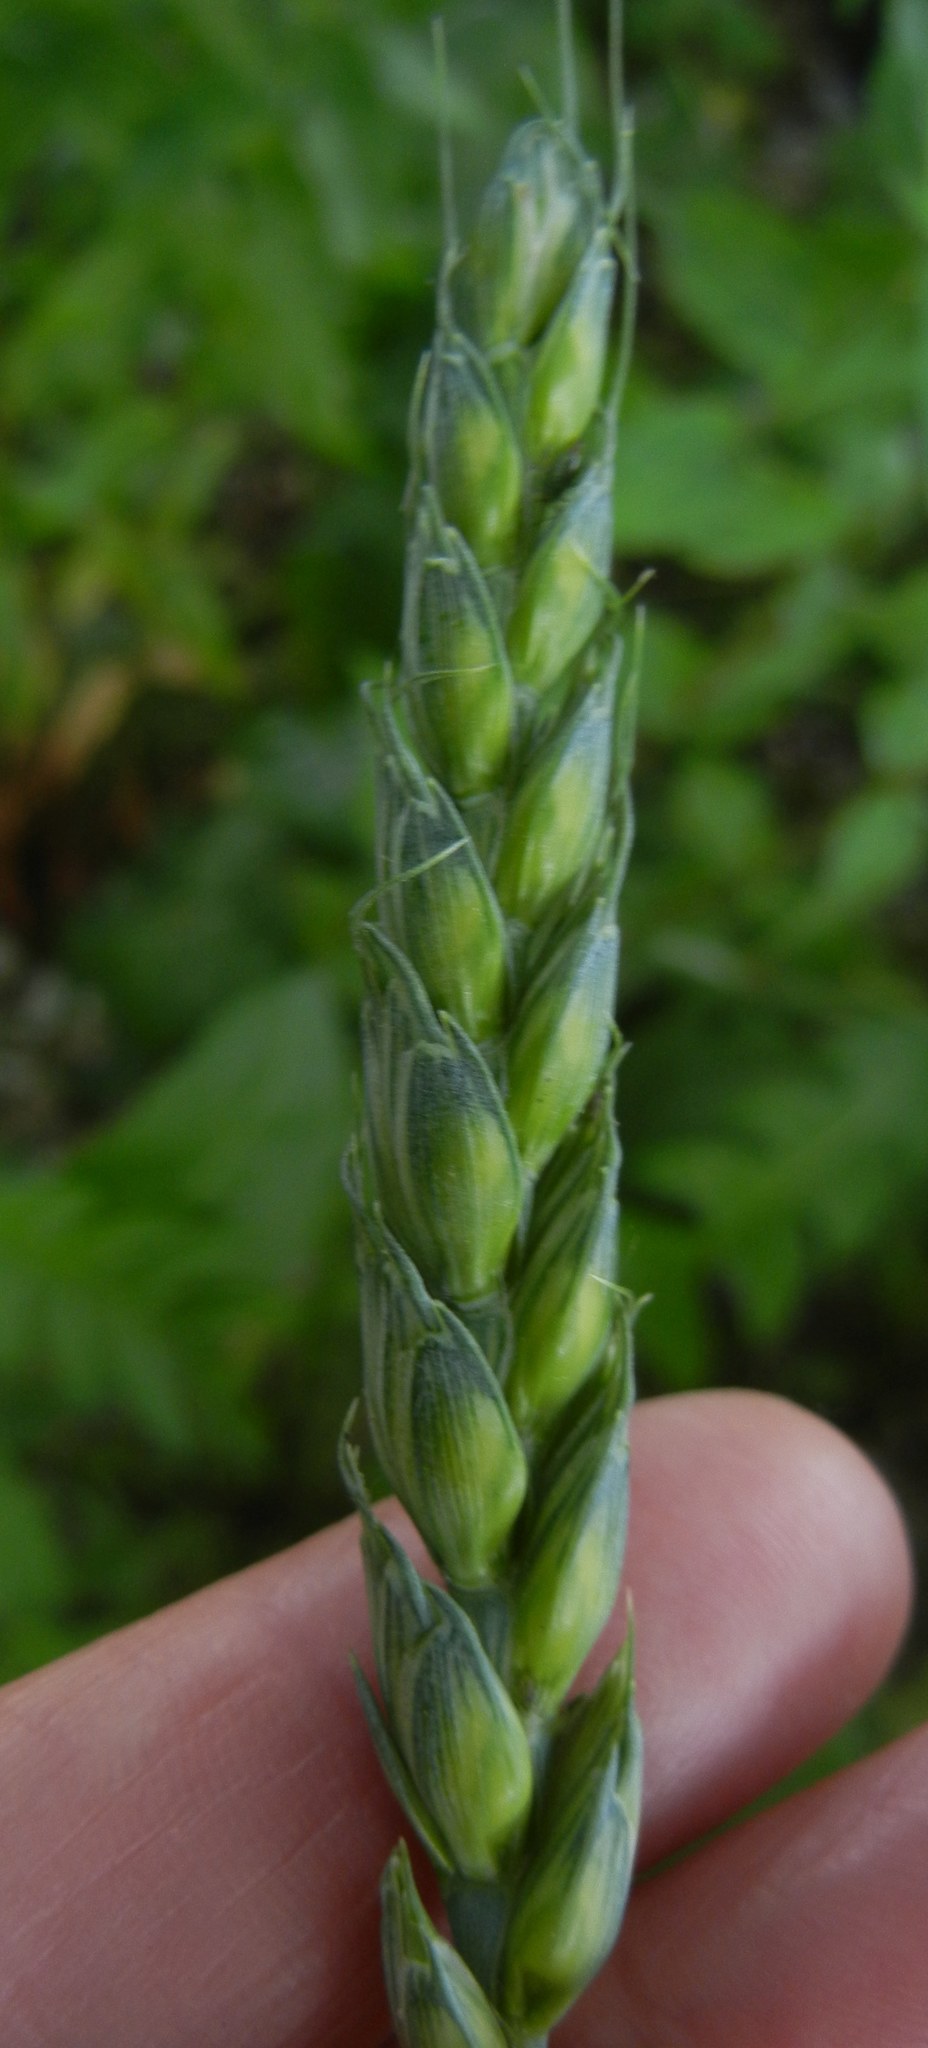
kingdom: Plantae
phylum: Tracheophyta
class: Liliopsida
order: Poales
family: Poaceae
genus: Triticum
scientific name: Triticum aestivum
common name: Common wheat
